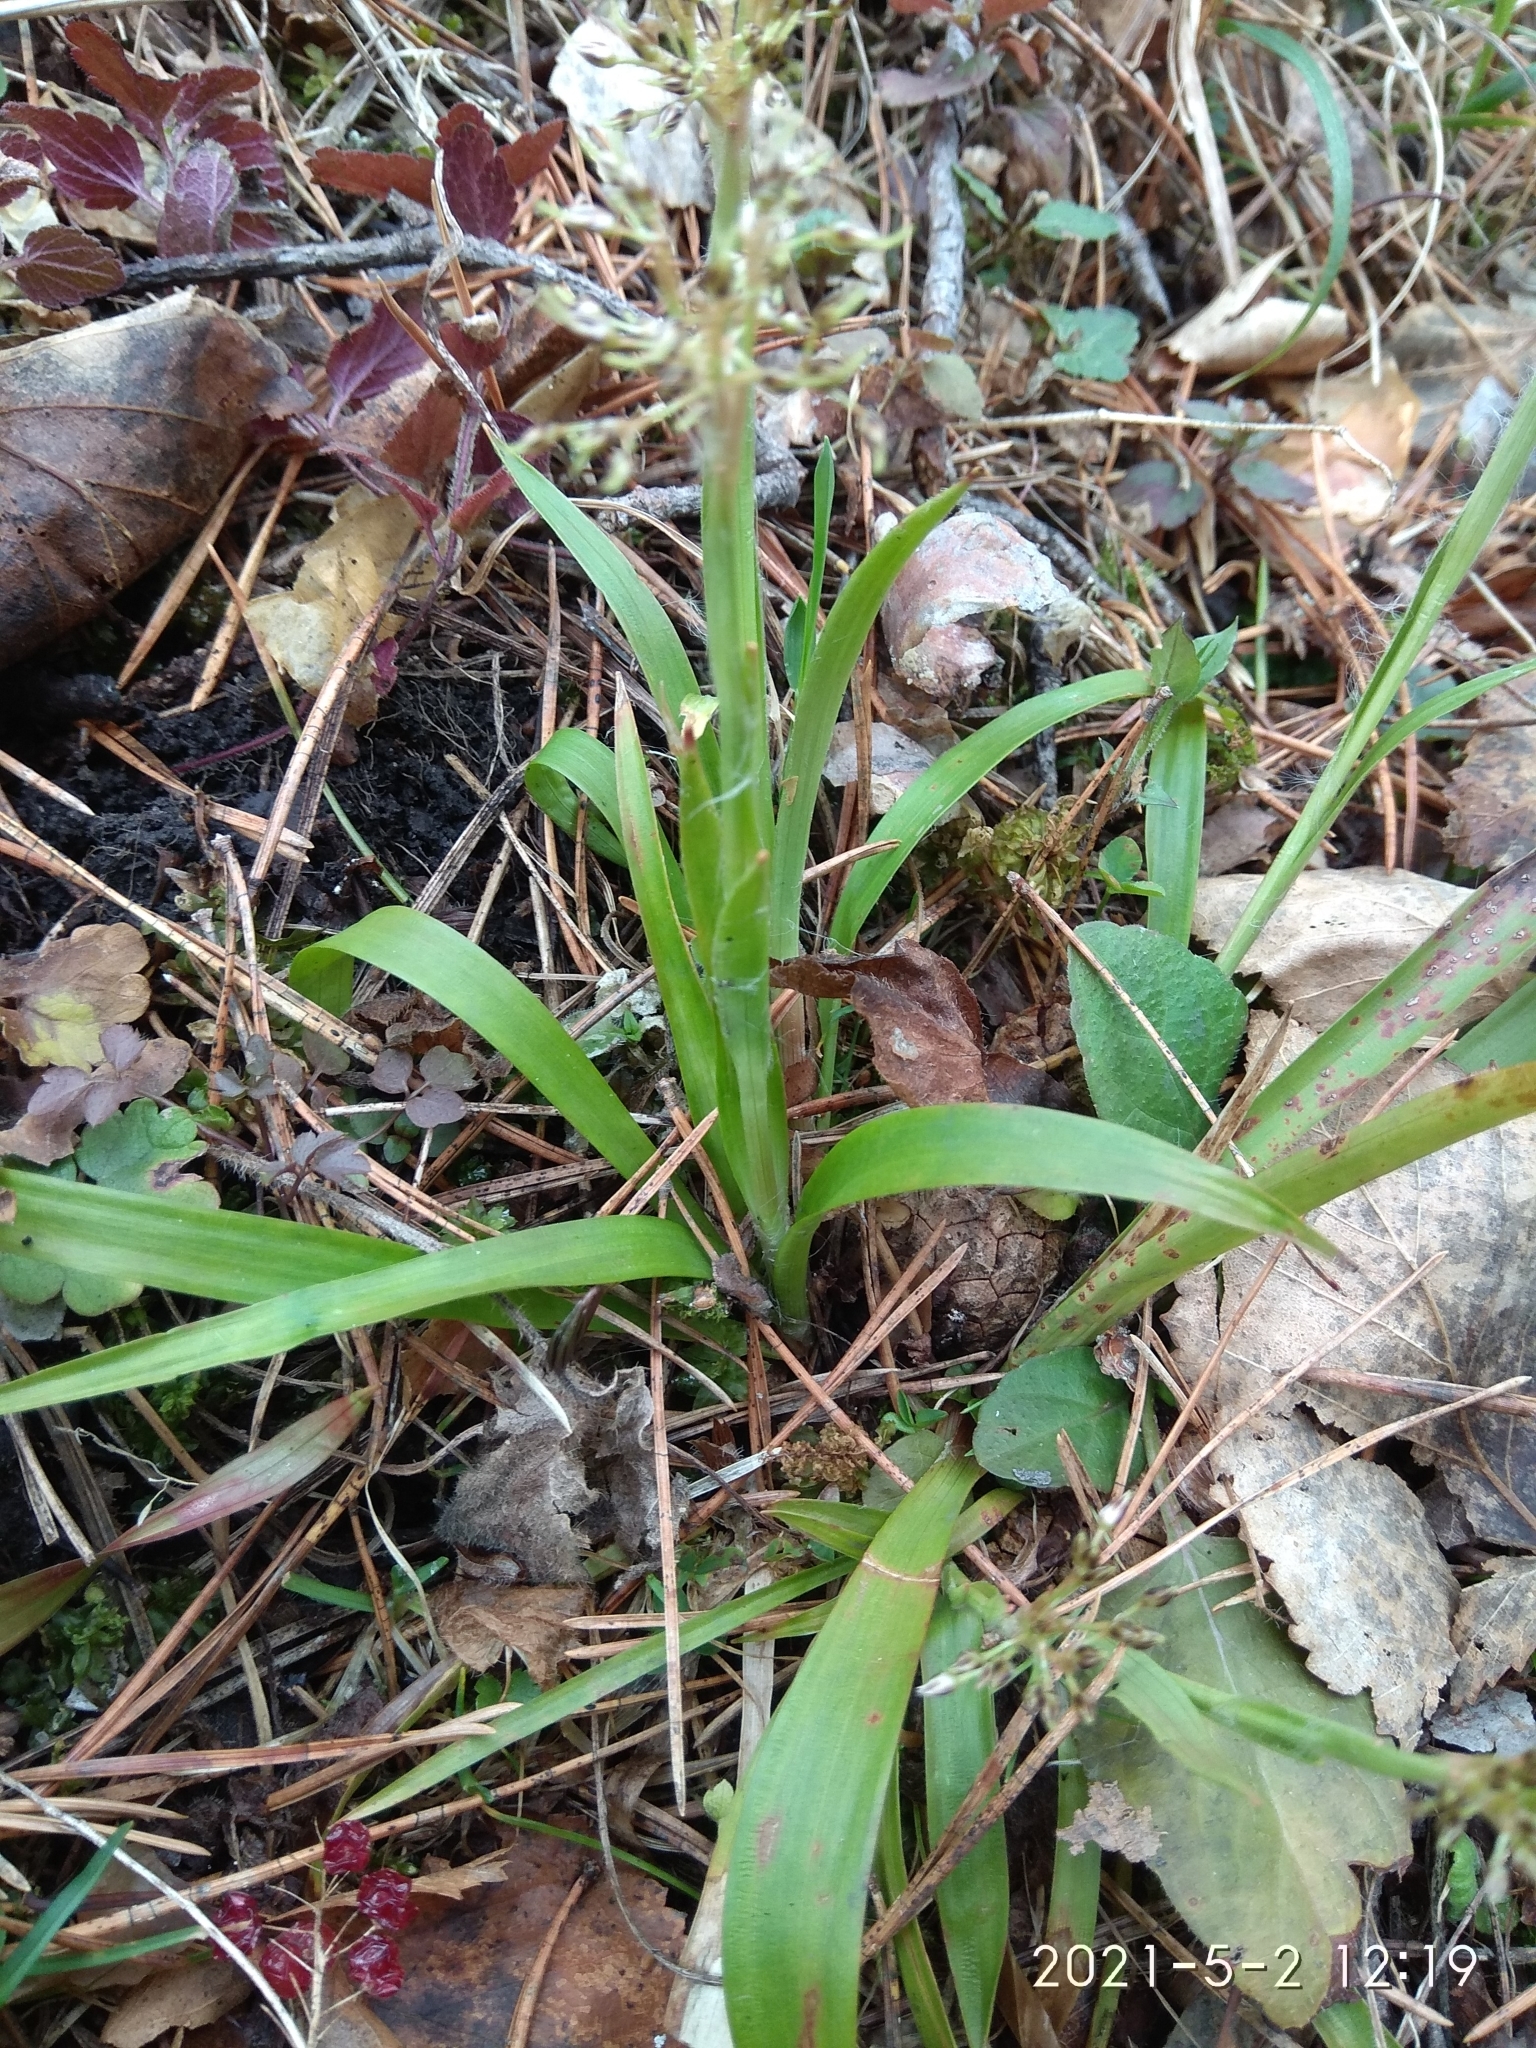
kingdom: Plantae
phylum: Tracheophyta
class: Liliopsida
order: Poales
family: Juncaceae
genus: Luzula
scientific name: Luzula pilosa
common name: Hairy wood-rush
